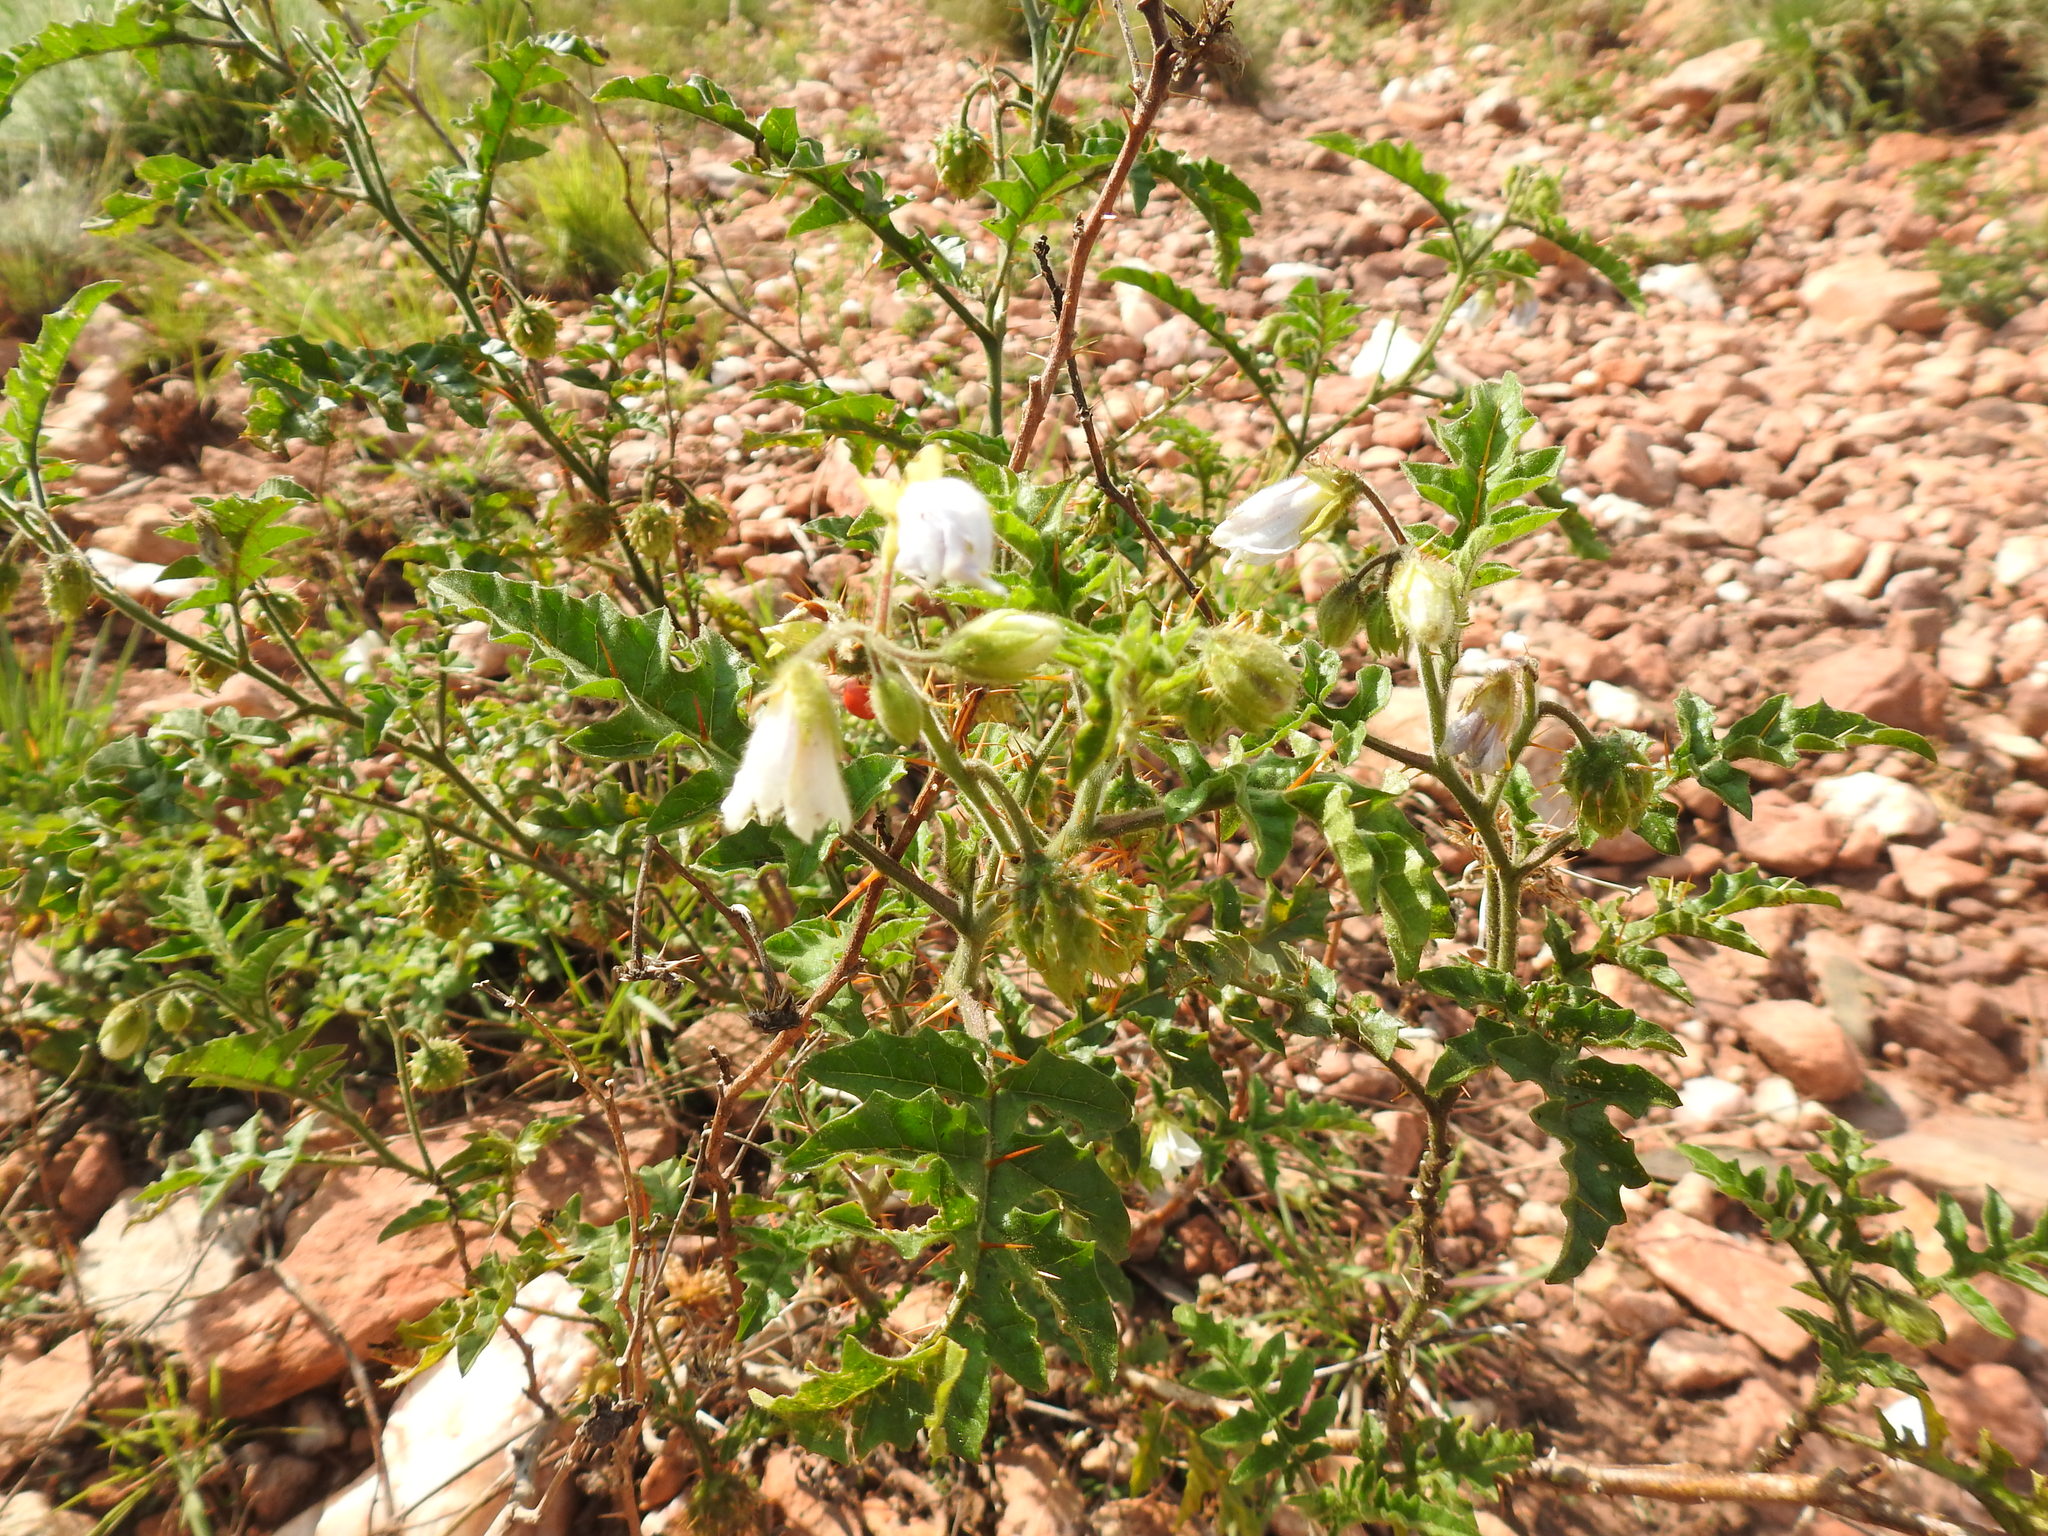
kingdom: Plantae
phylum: Tracheophyta
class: Magnoliopsida
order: Solanales
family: Solanaceae
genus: Solanum
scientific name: Solanum sisymbriifolium
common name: Red buffalo-bur
